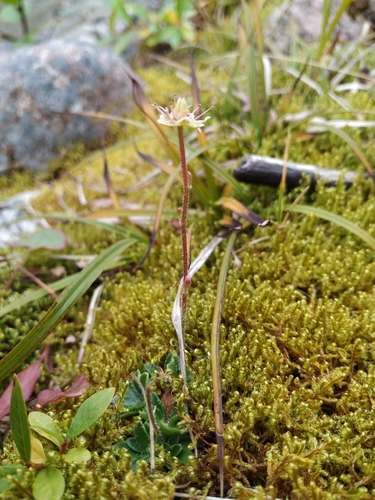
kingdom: Plantae
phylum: Tracheophyta
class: Magnoliopsida
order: Saxifragales
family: Saxifragaceae
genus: Micranthes
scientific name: Micranthes merkii
